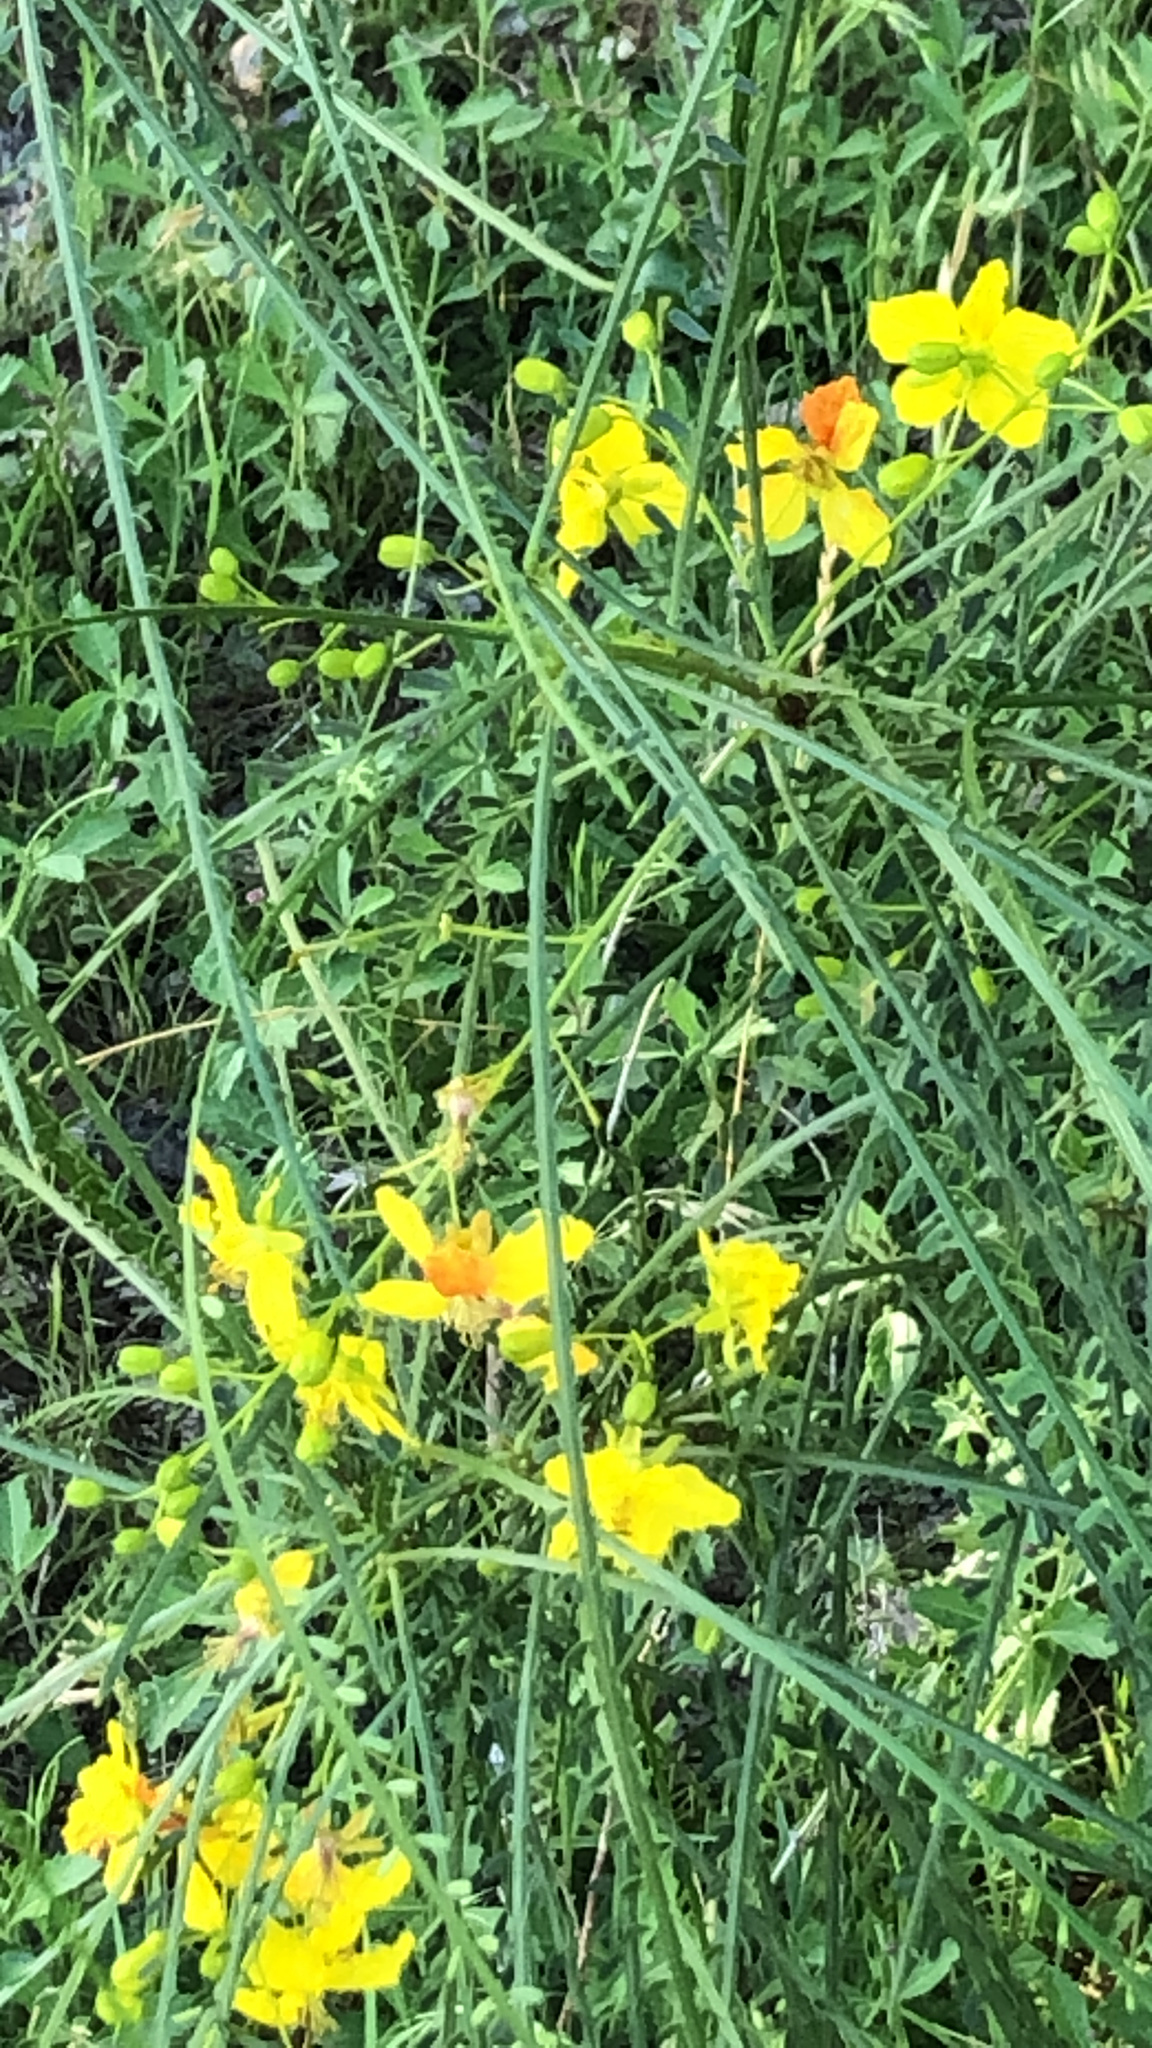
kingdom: Plantae
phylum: Tracheophyta
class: Magnoliopsida
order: Fabales
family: Fabaceae
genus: Parkinsonia
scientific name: Parkinsonia aculeata
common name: Jerusalem thorn
